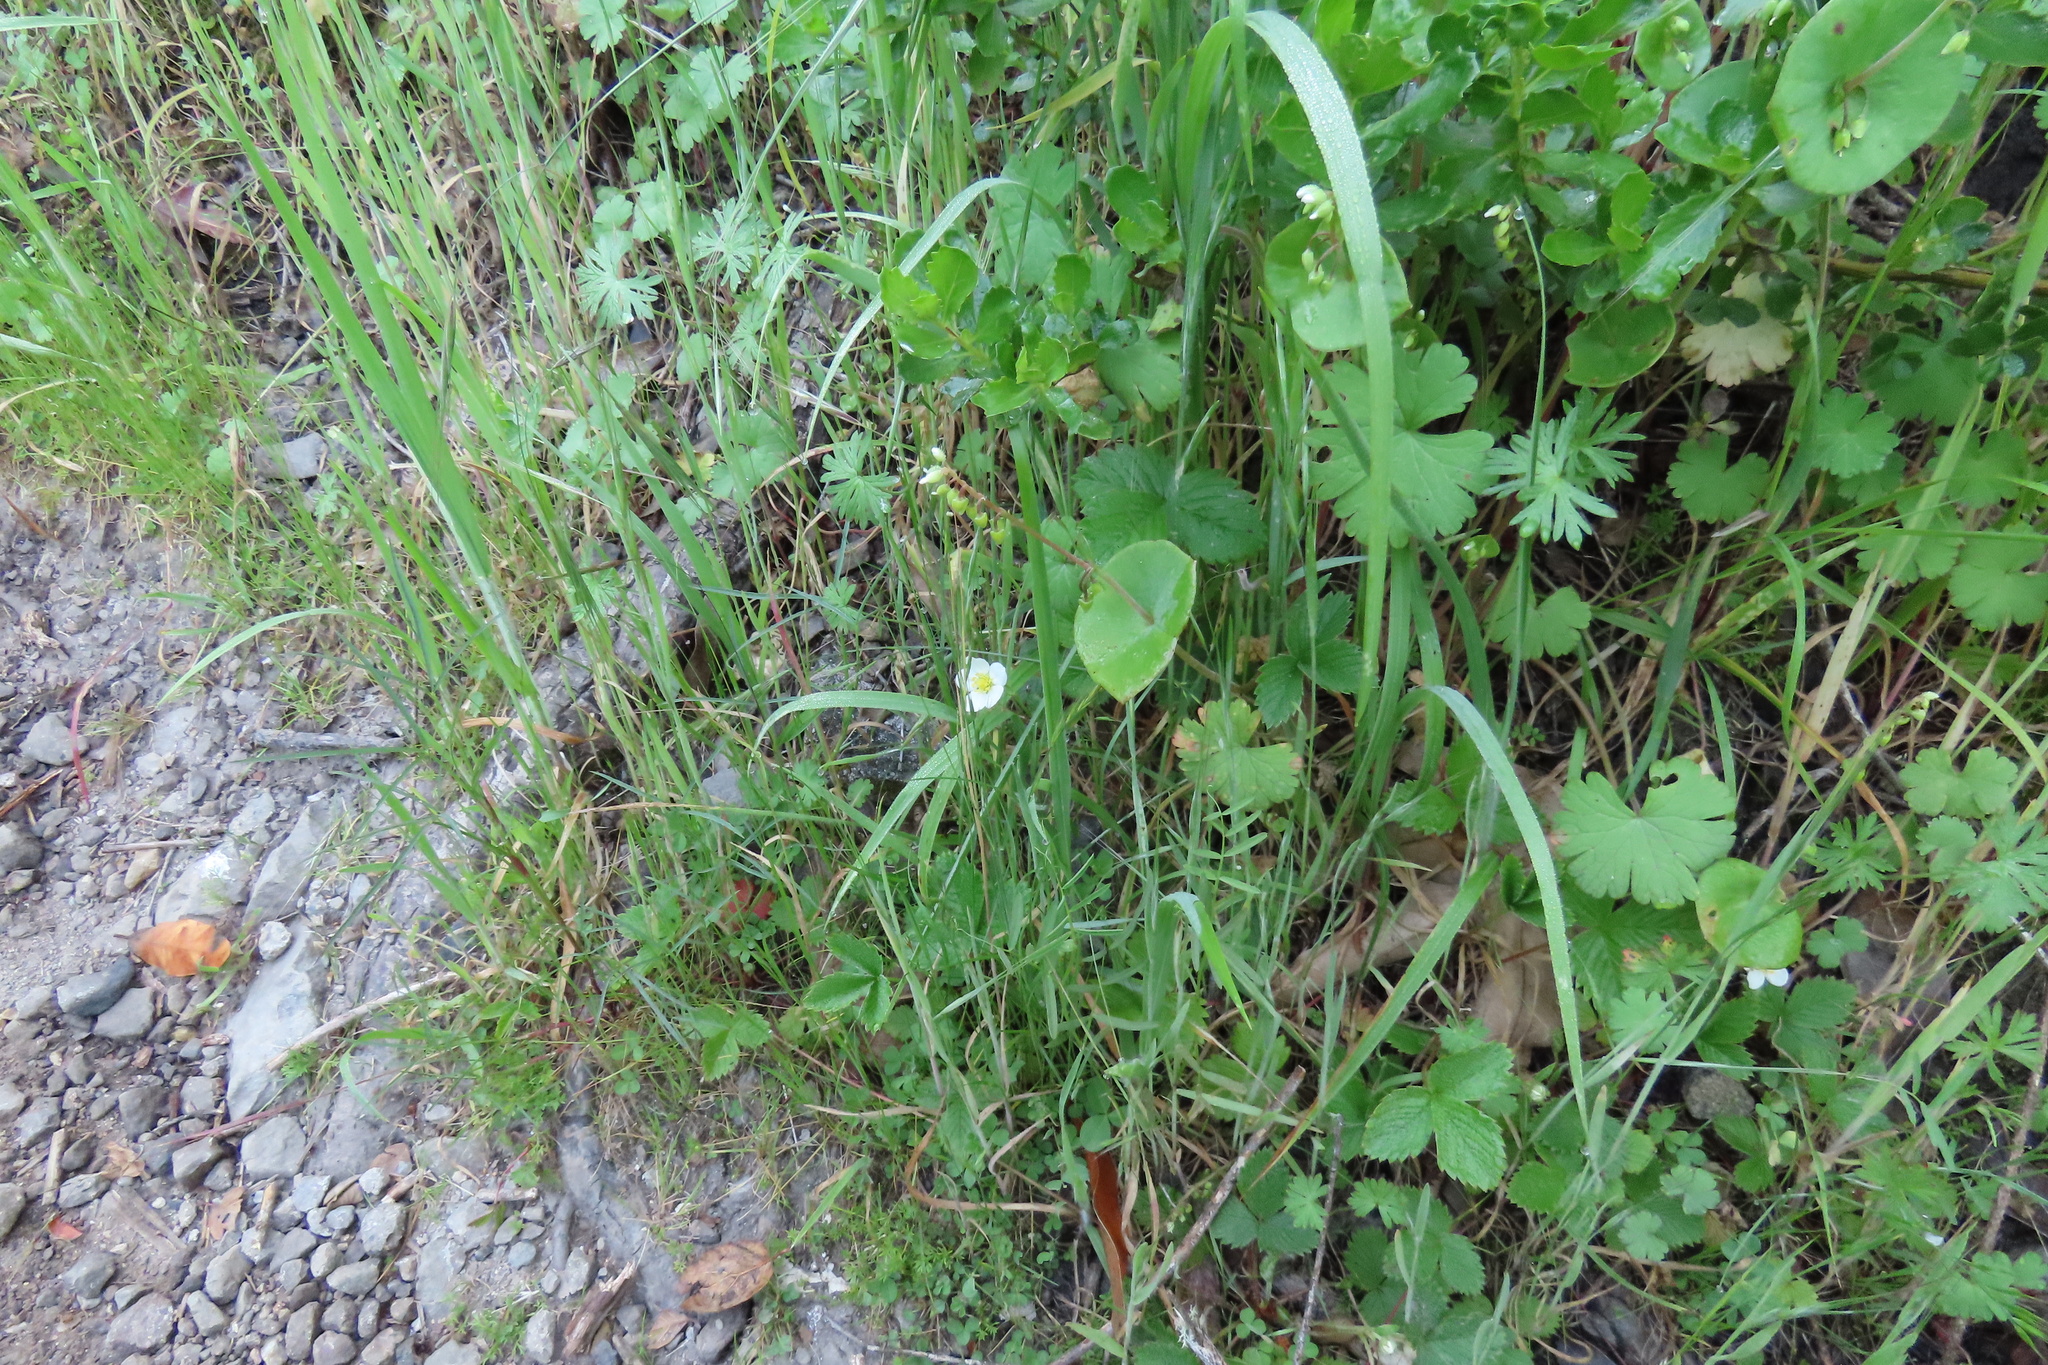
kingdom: Plantae
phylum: Tracheophyta
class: Magnoliopsida
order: Rosales
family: Rosaceae
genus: Fragaria
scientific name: Fragaria vesca
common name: Wild strawberry
